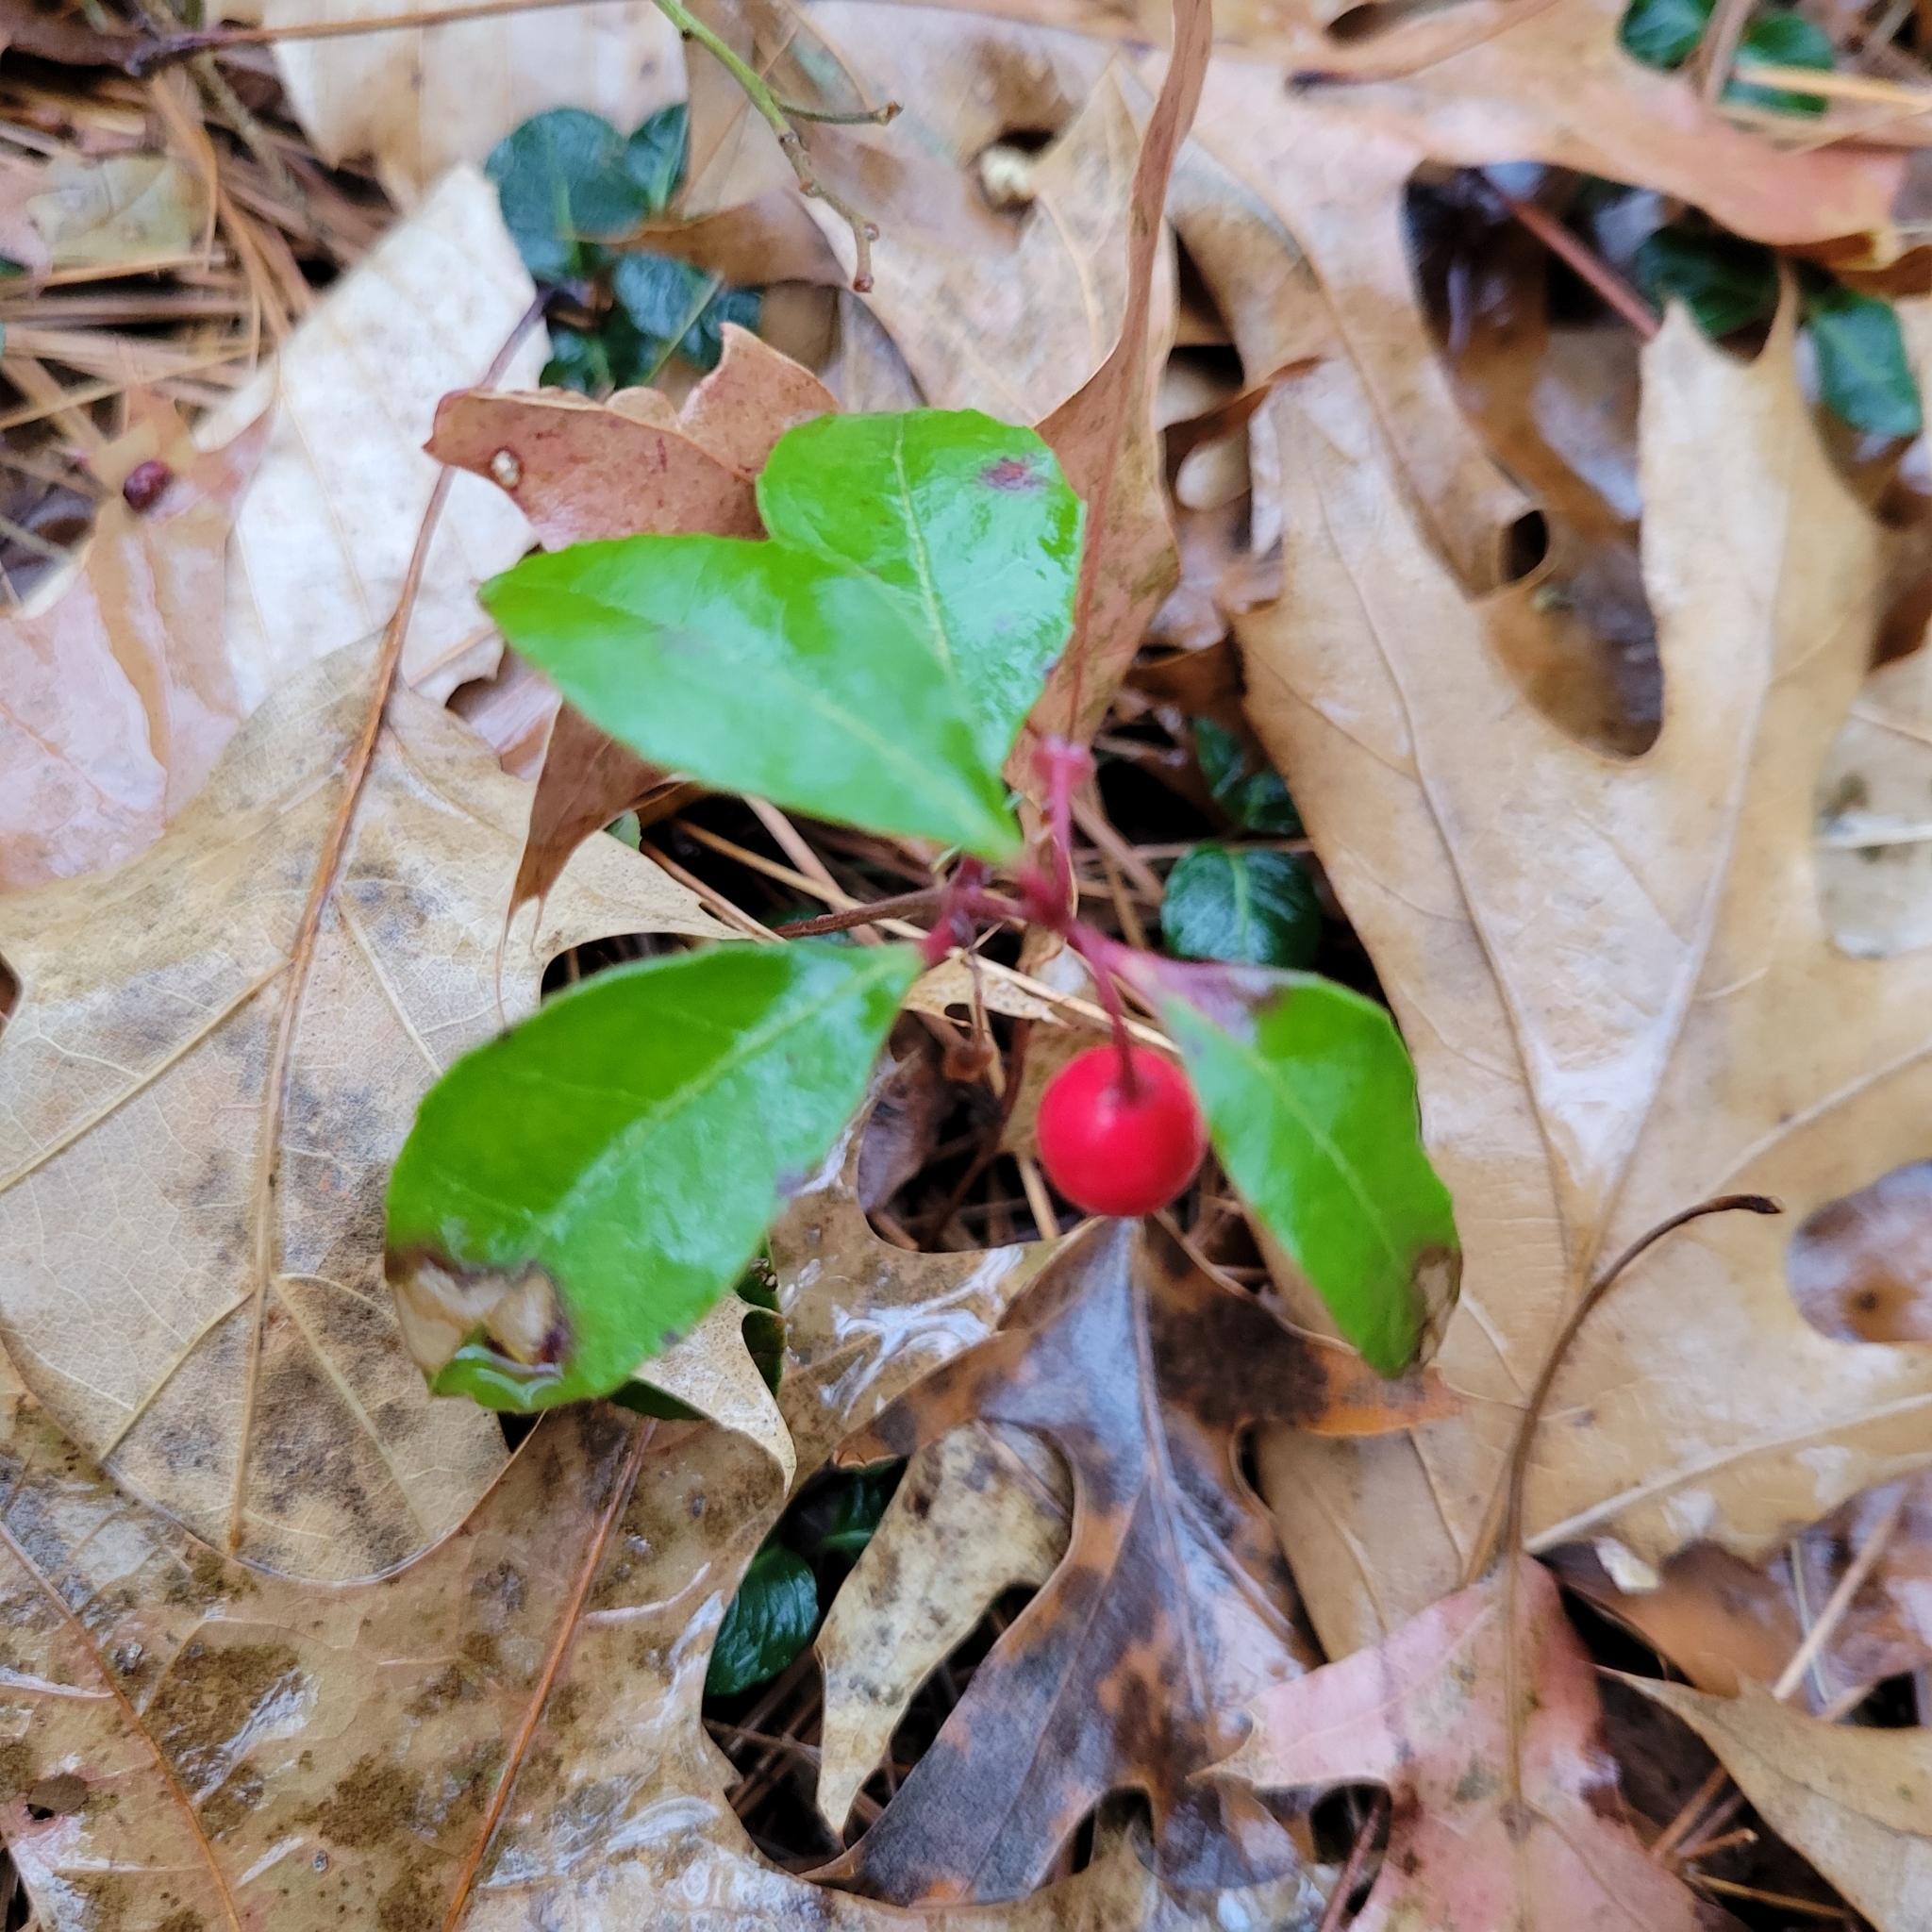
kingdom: Plantae
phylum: Tracheophyta
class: Magnoliopsida
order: Ericales
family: Ericaceae
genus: Gaultheria
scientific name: Gaultheria procumbens
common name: Checkerberry
